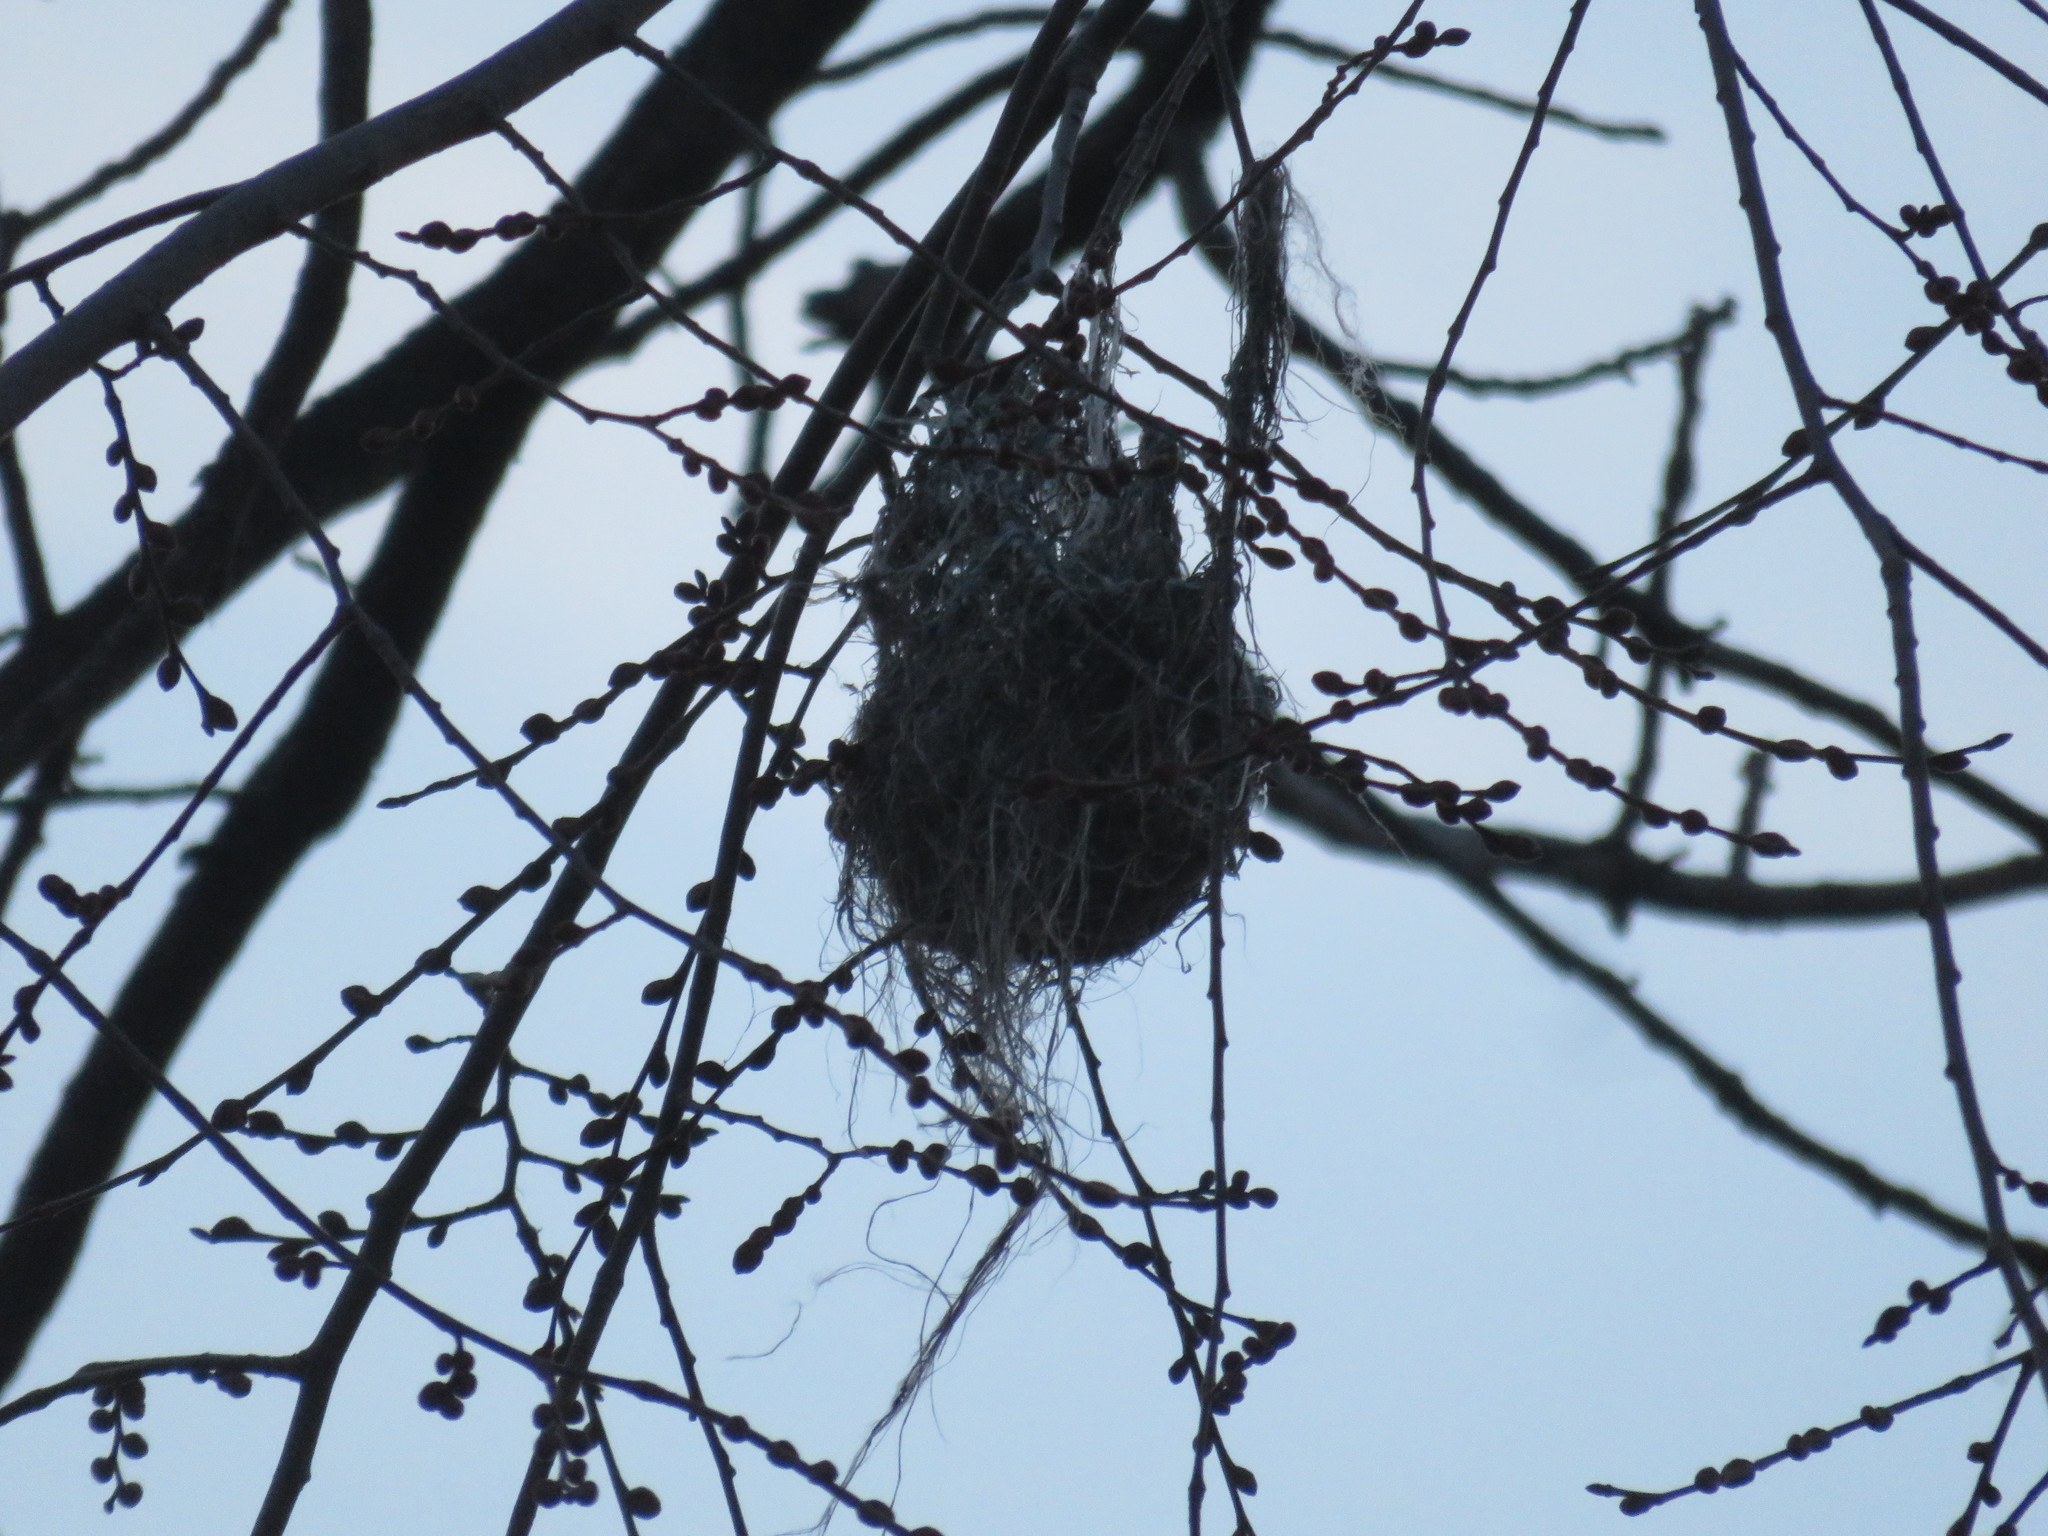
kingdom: Animalia
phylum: Chordata
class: Aves
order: Passeriformes
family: Icteridae
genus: Icterus
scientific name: Icterus galbula
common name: Baltimore oriole
